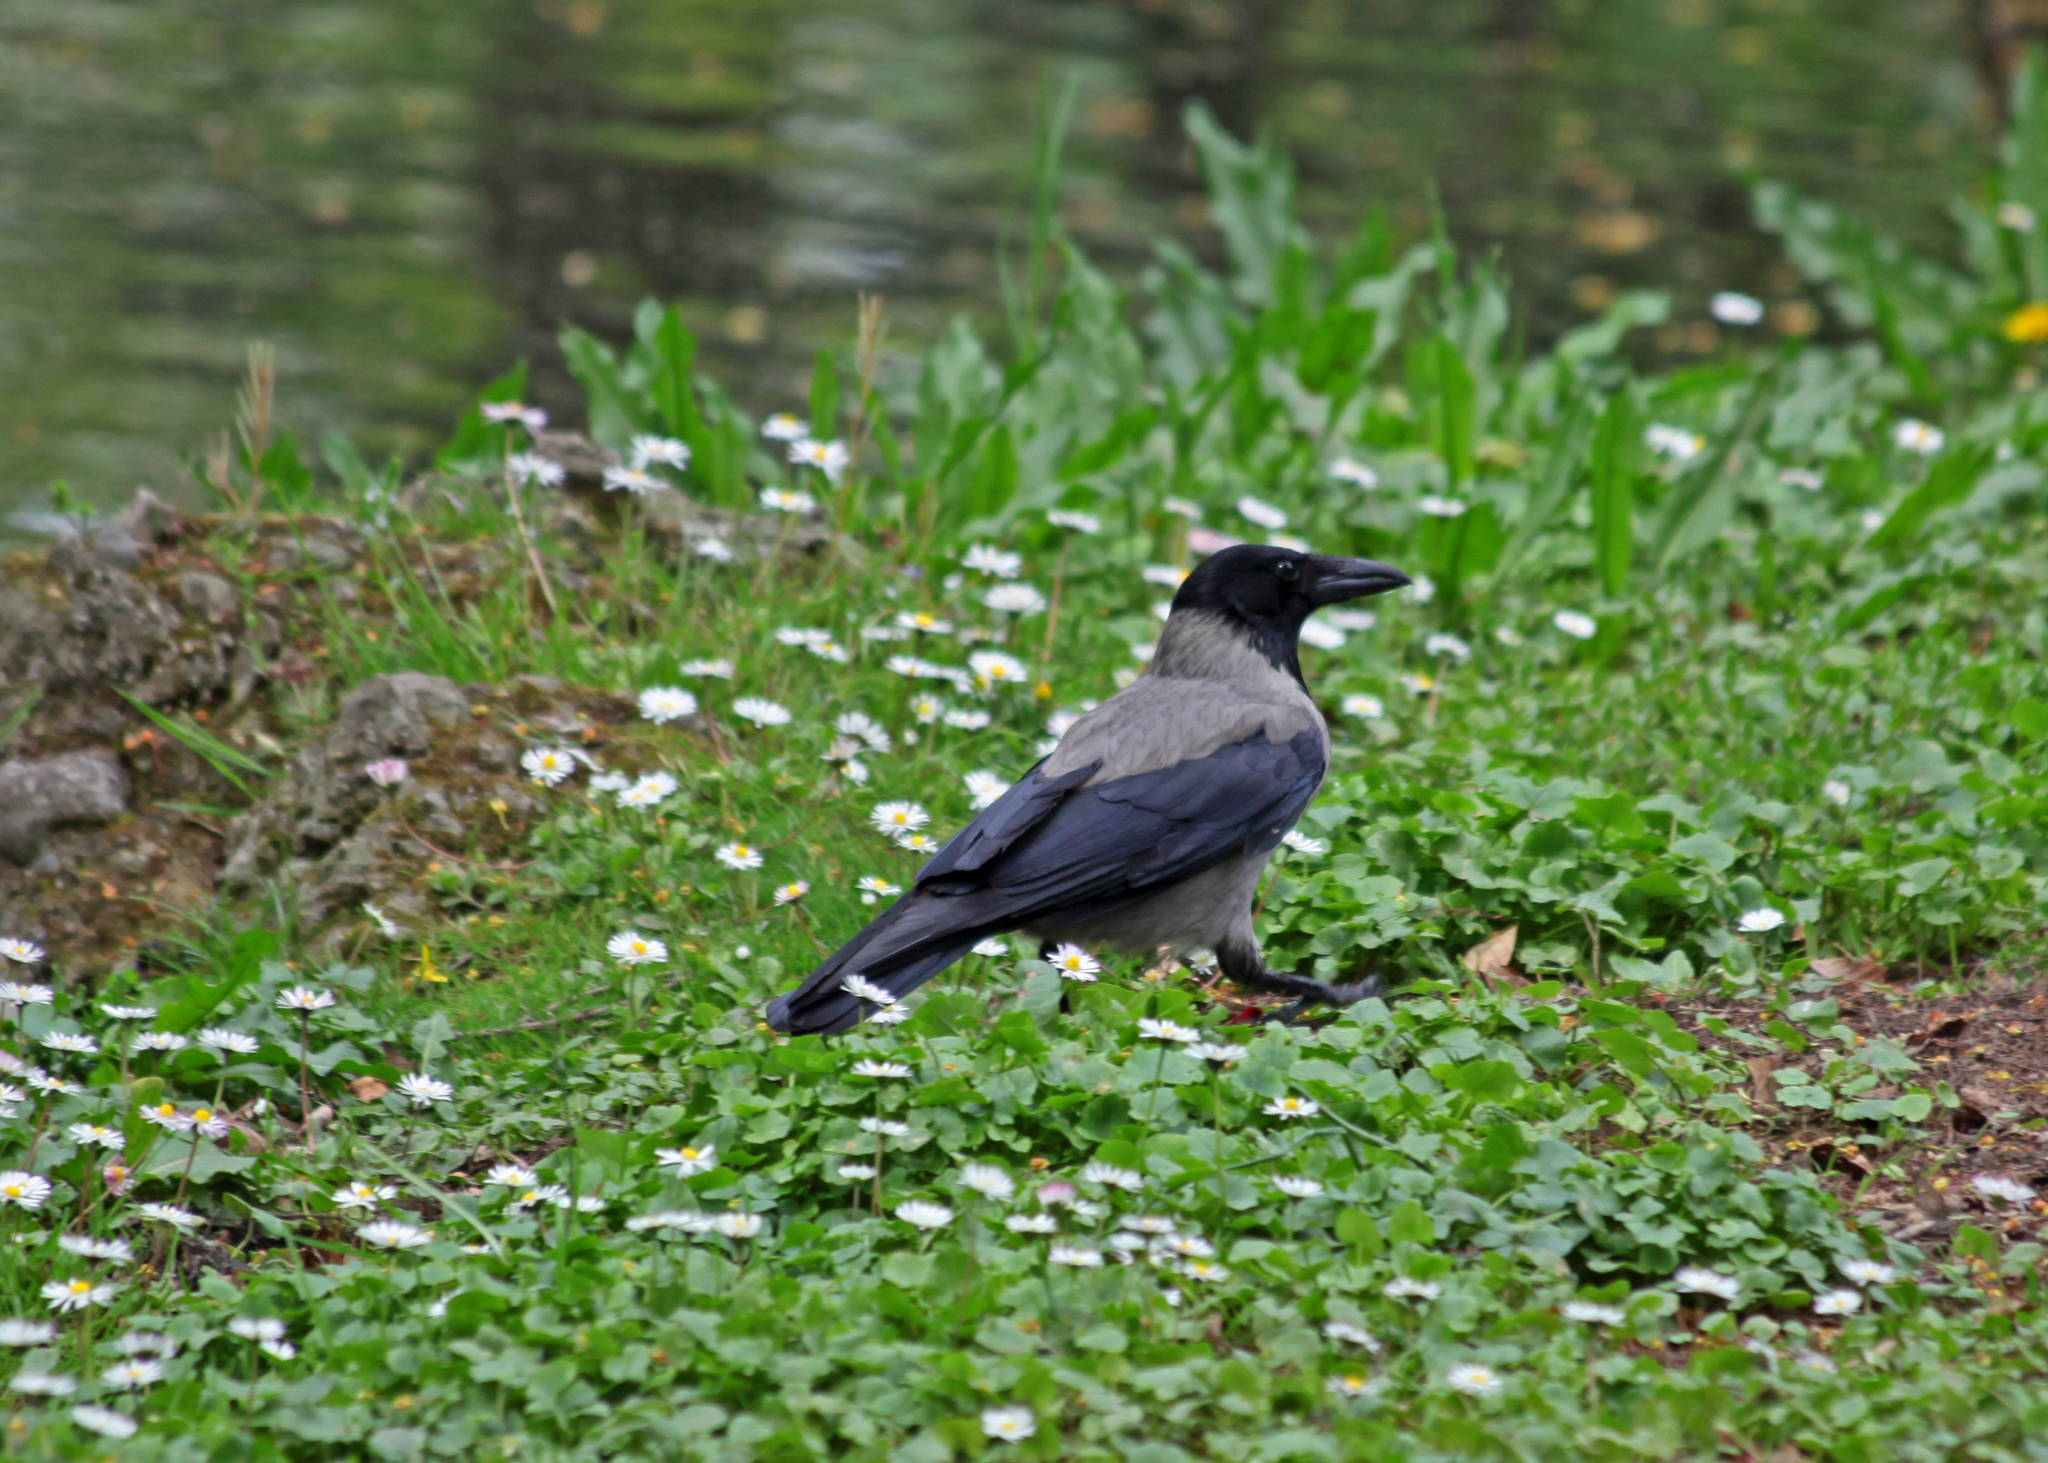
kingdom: Animalia
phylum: Chordata
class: Aves
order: Passeriformes
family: Corvidae
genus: Corvus
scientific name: Corvus cornix
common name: Hooded crow
